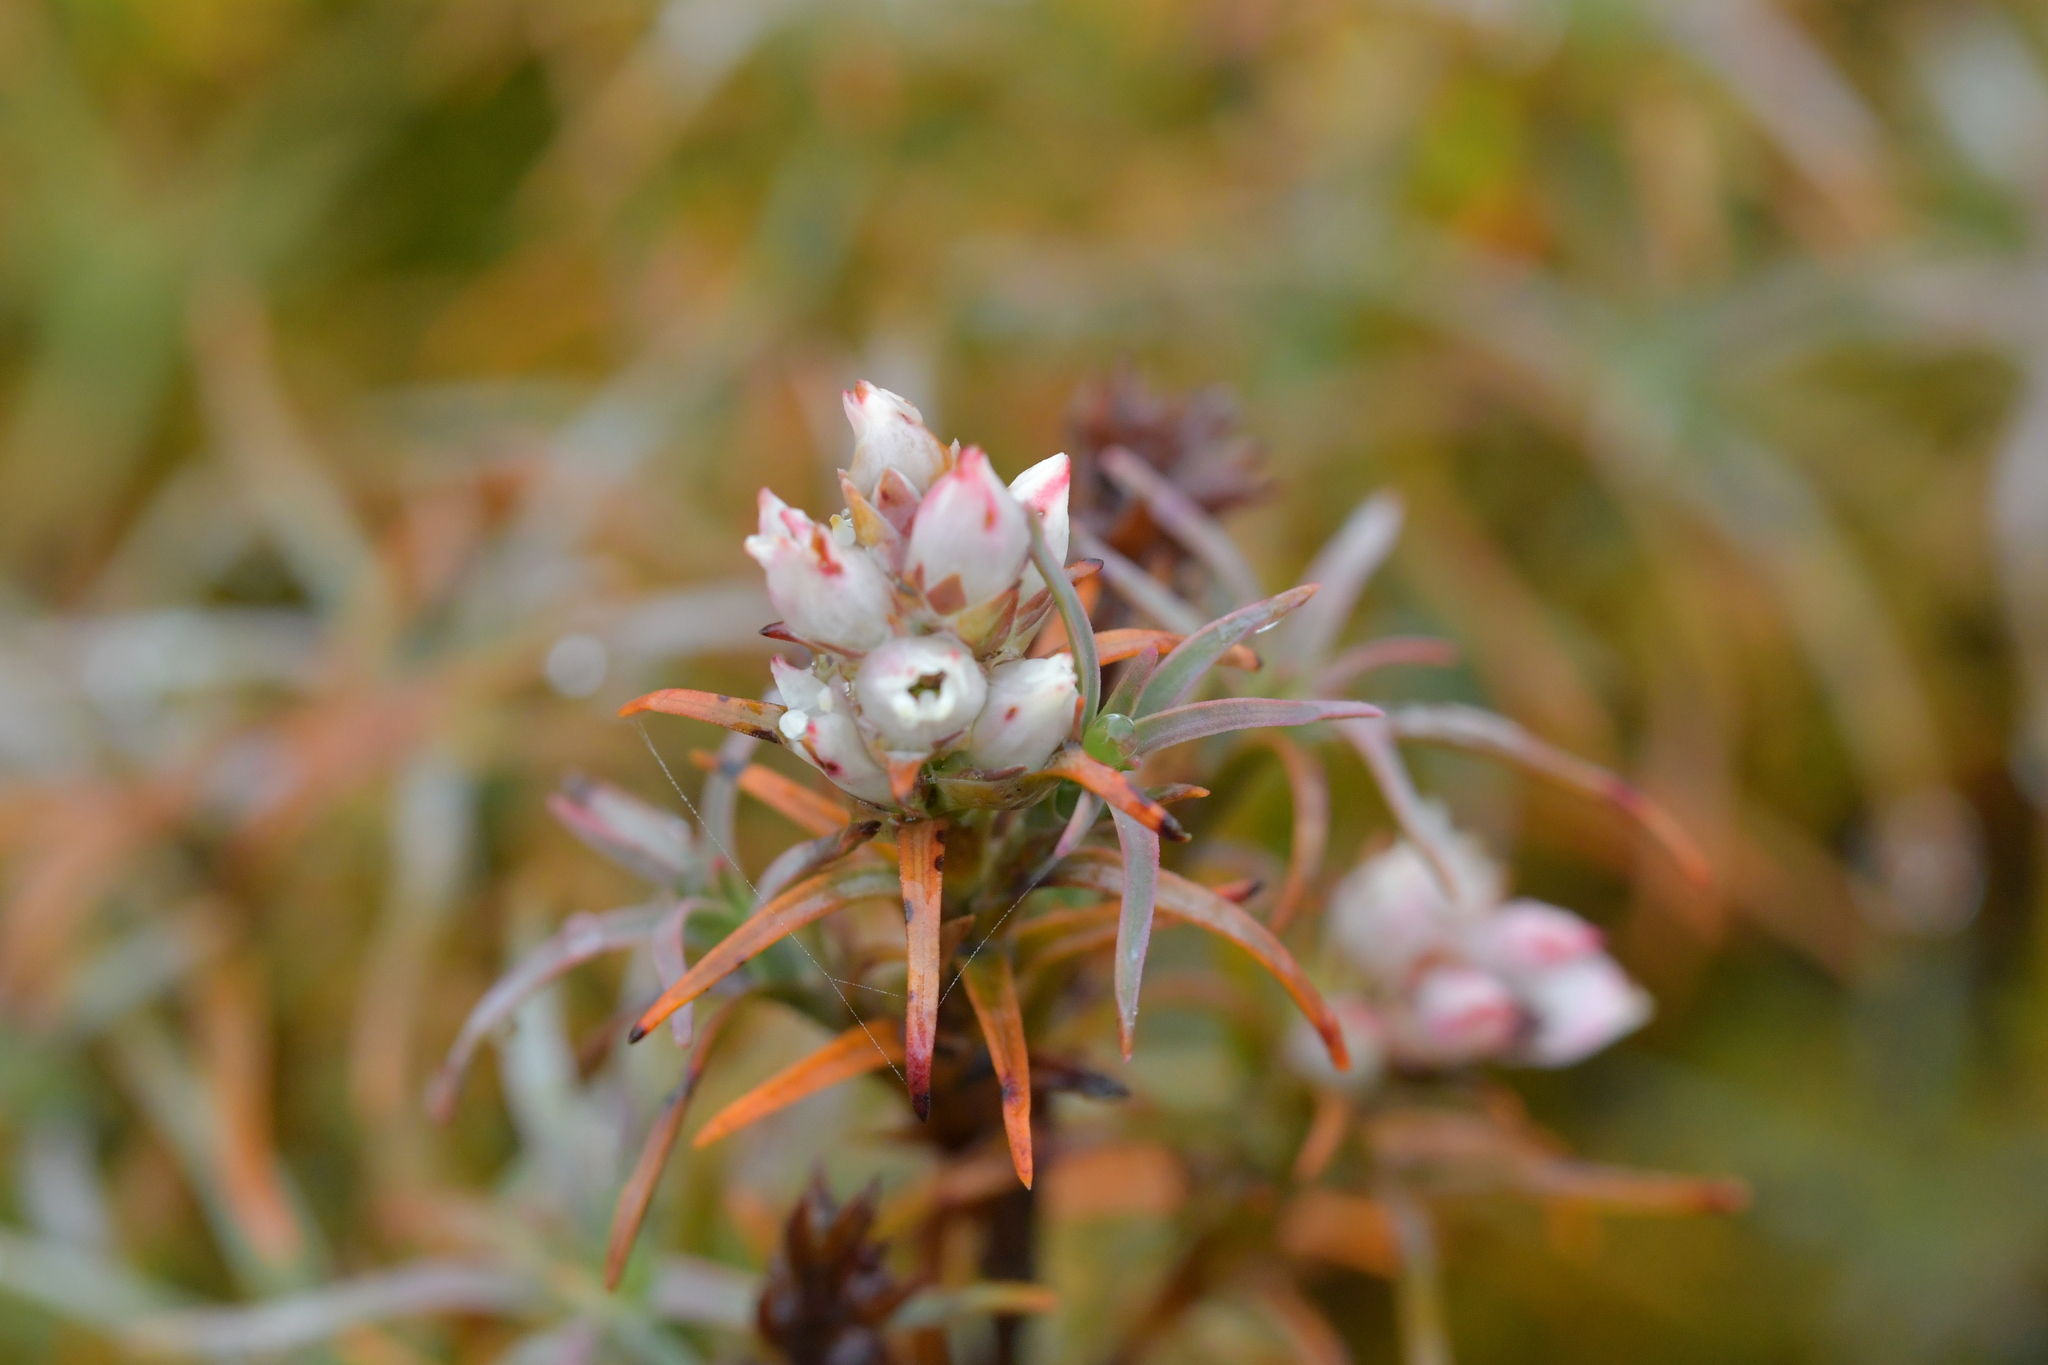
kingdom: Plantae
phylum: Tracheophyta
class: Magnoliopsida
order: Ericales
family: Ericaceae
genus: Dracophyllum
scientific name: Dracophyllum recurvum
